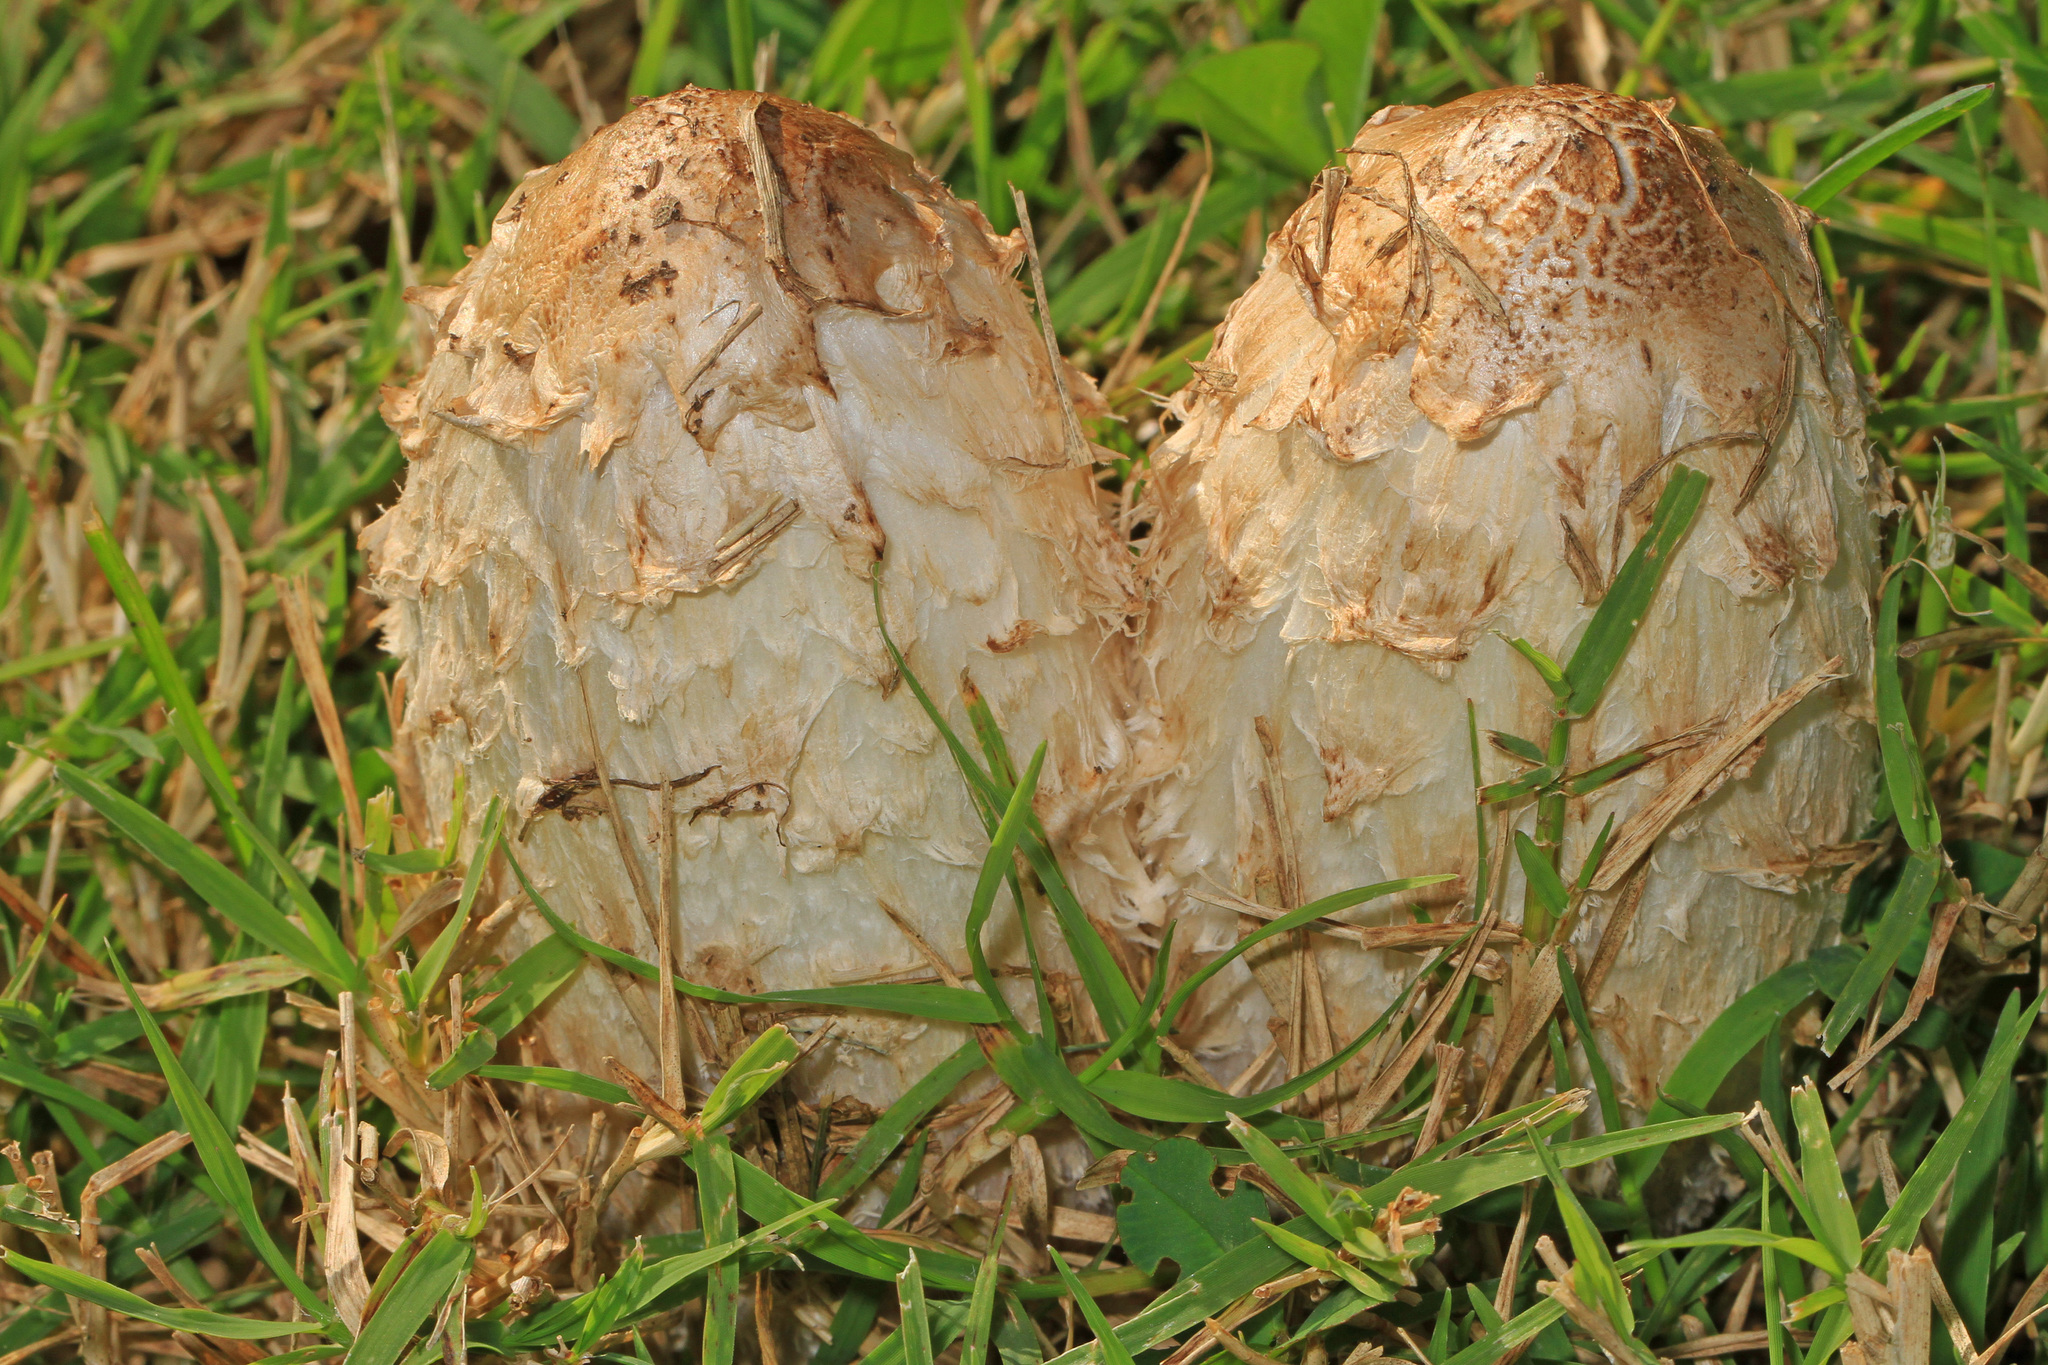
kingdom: Fungi
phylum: Basidiomycota
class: Agaricomycetes
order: Agaricales
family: Agaricaceae
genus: Coprinus
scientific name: Coprinus comatus
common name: Lawyer's wig
